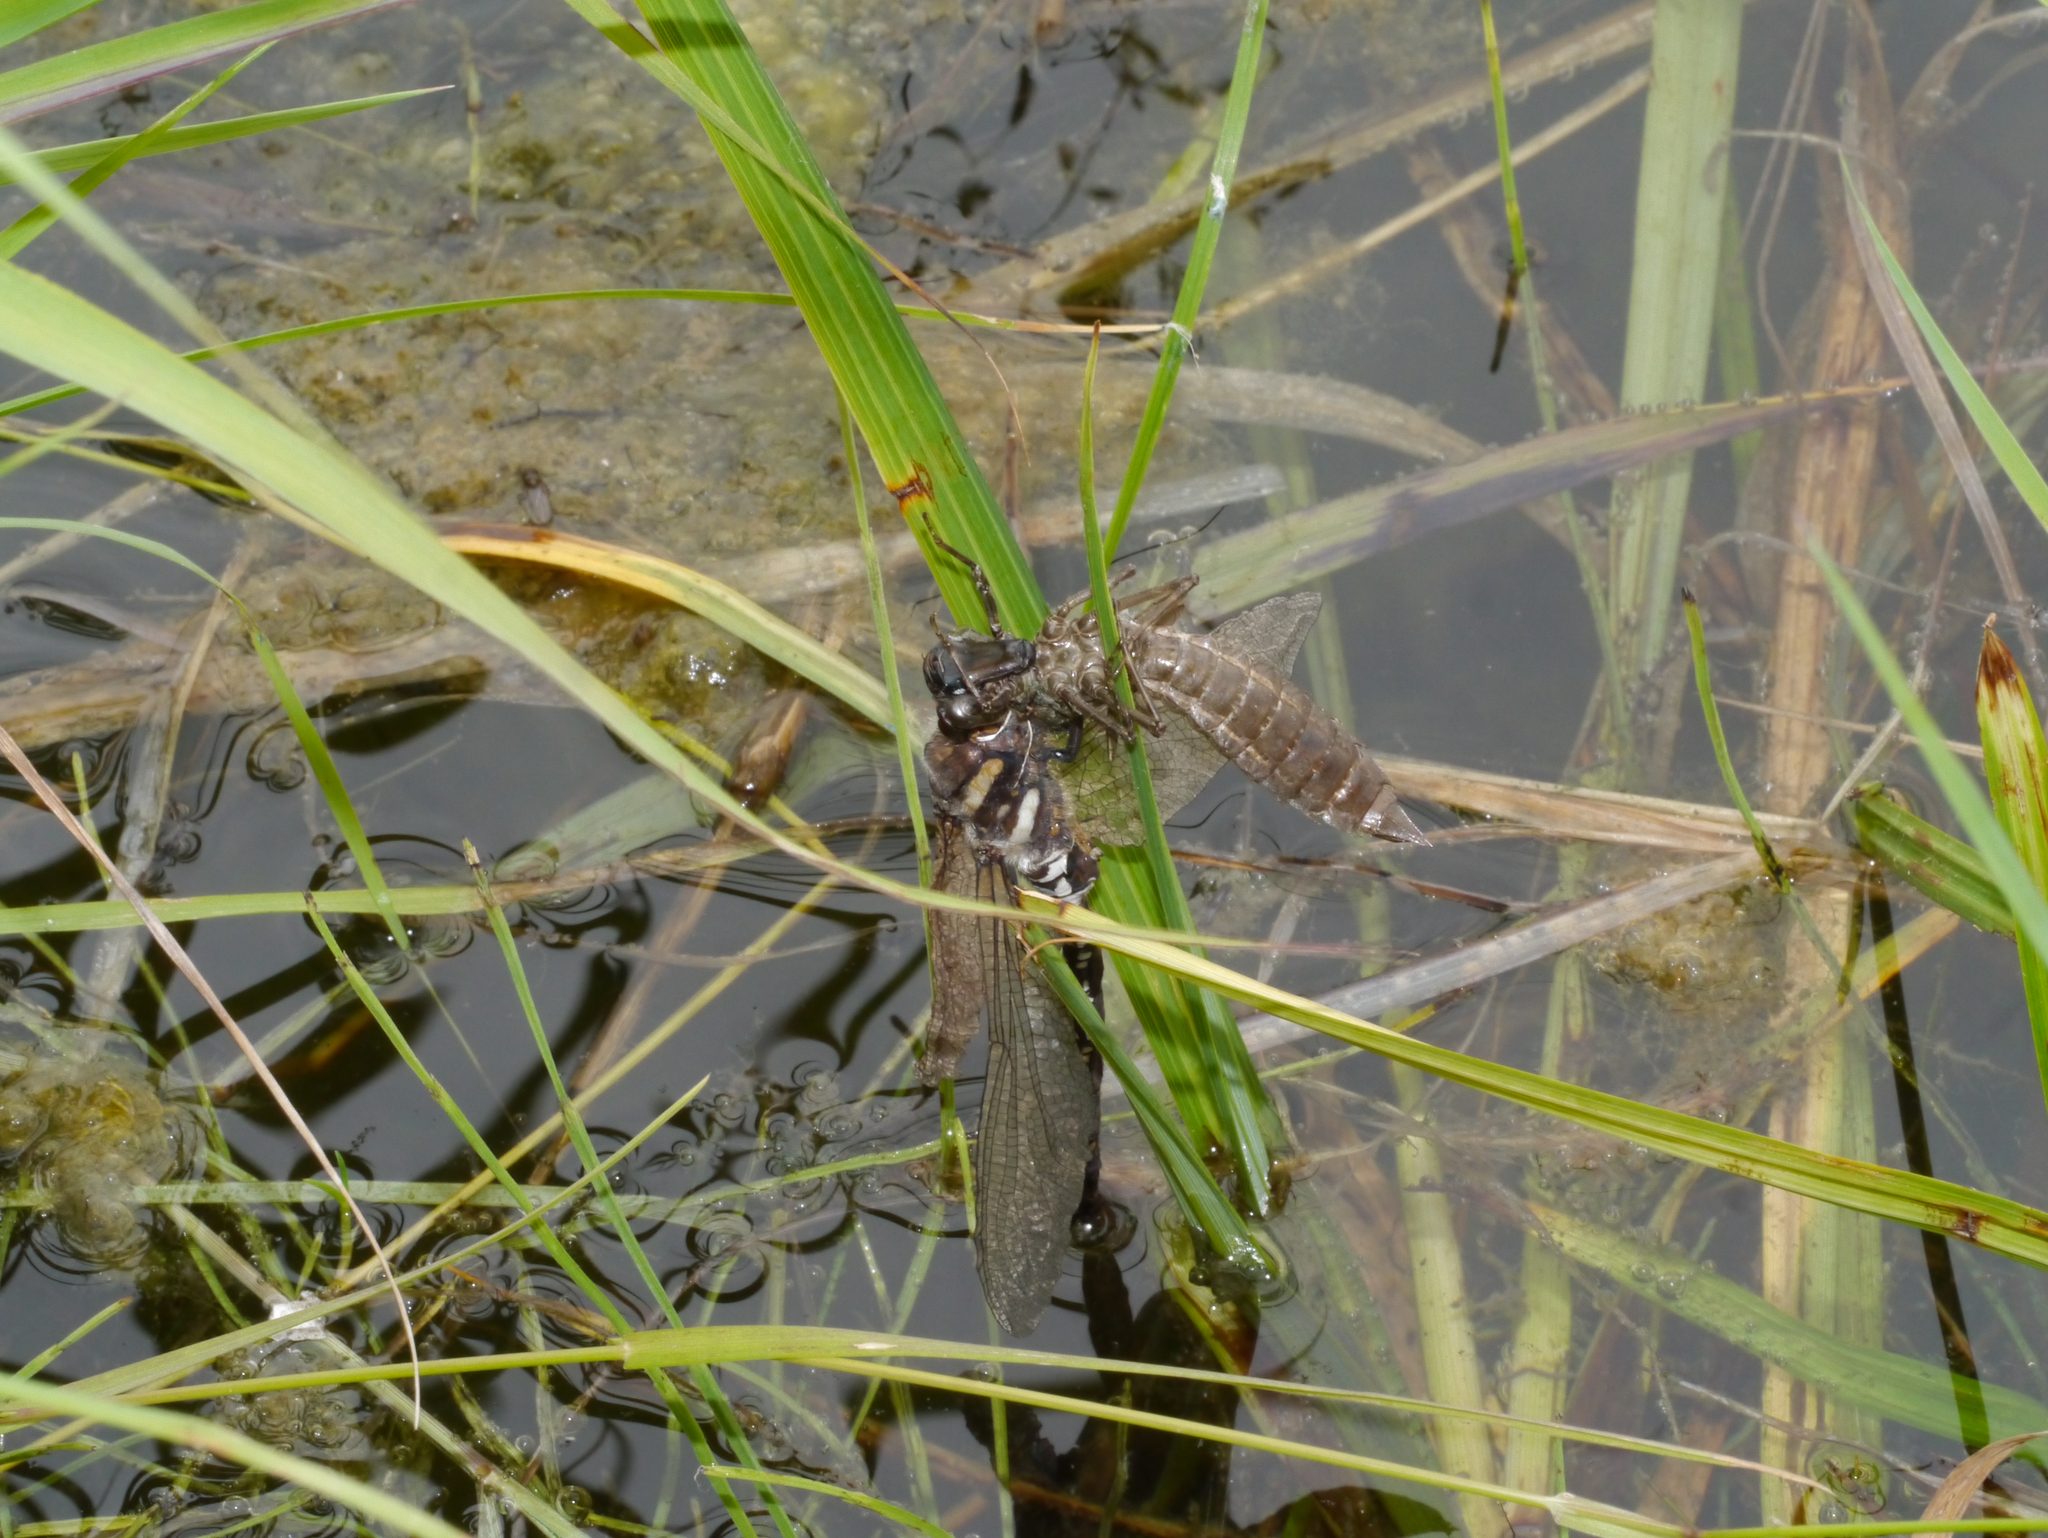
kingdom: Animalia
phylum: Arthropoda
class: Insecta
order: Odonata
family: Aeshnidae
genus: Aeshna
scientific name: Aeshna juncea
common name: Moorland hawker
